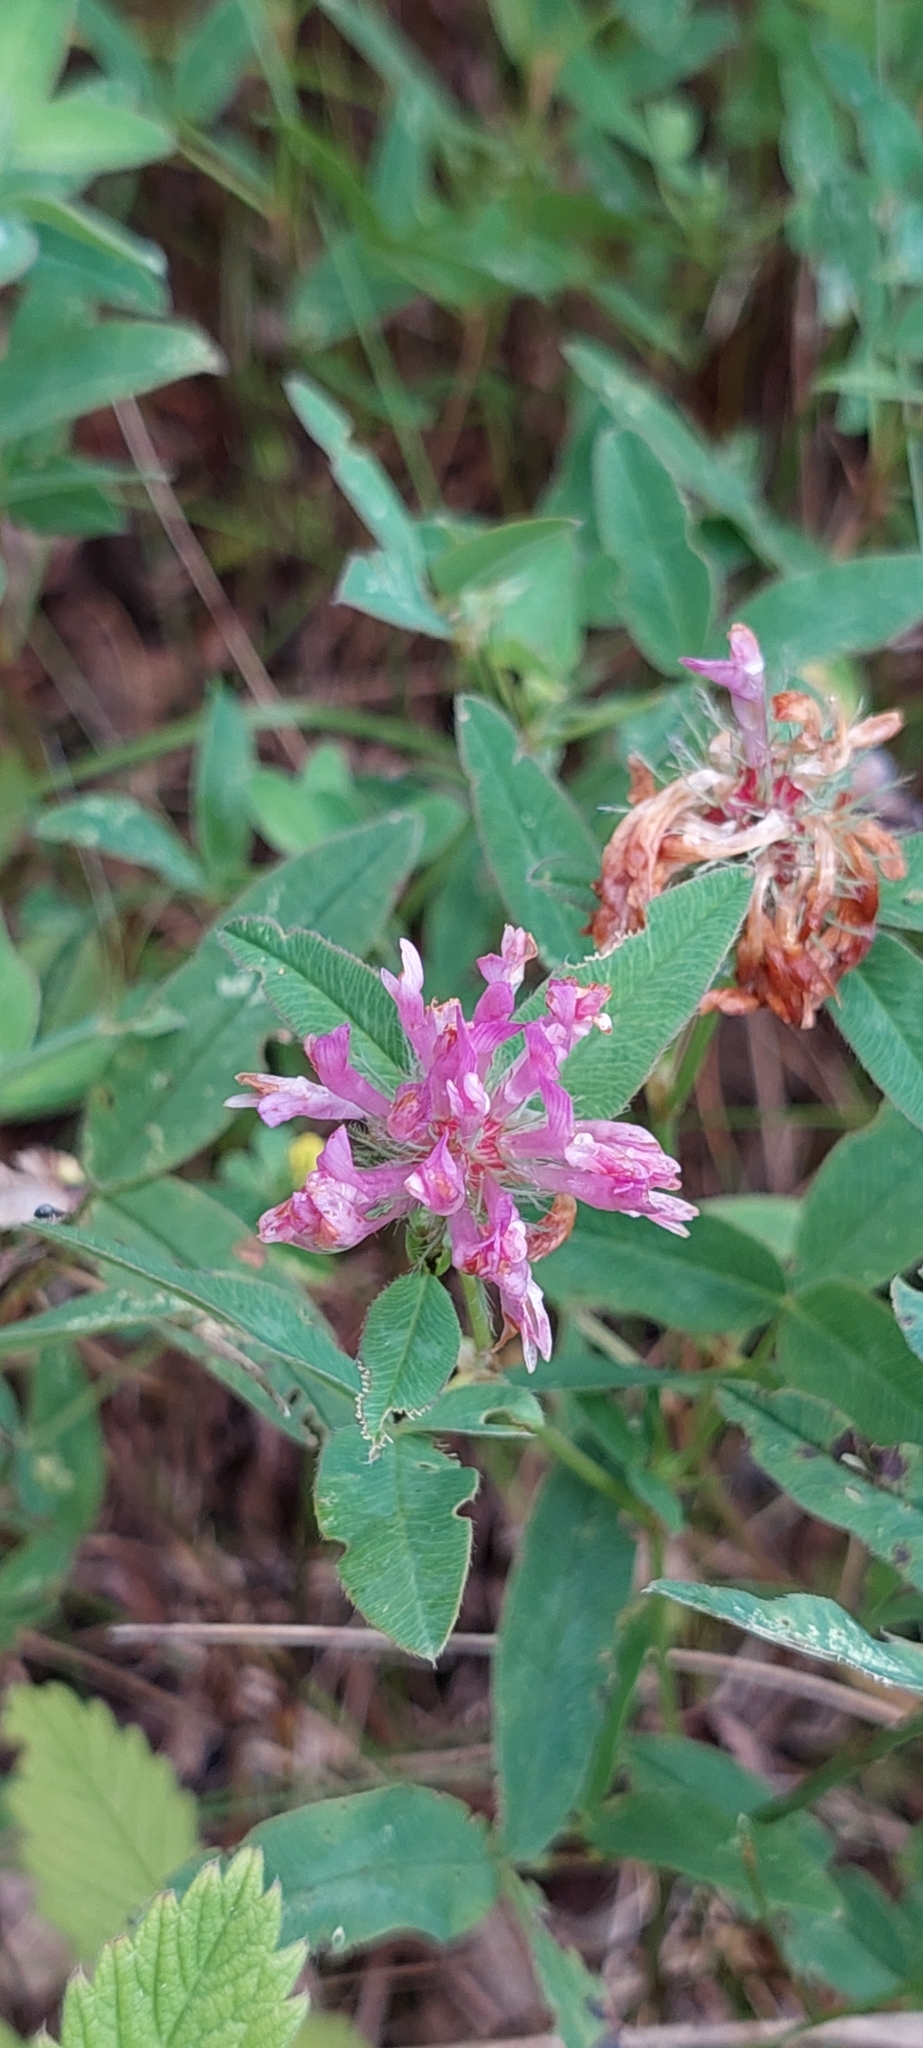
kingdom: Plantae
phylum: Tracheophyta
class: Magnoliopsida
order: Fabales
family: Fabaceae
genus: Trifolium
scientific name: Trifolium medium
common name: Zigzag clover
